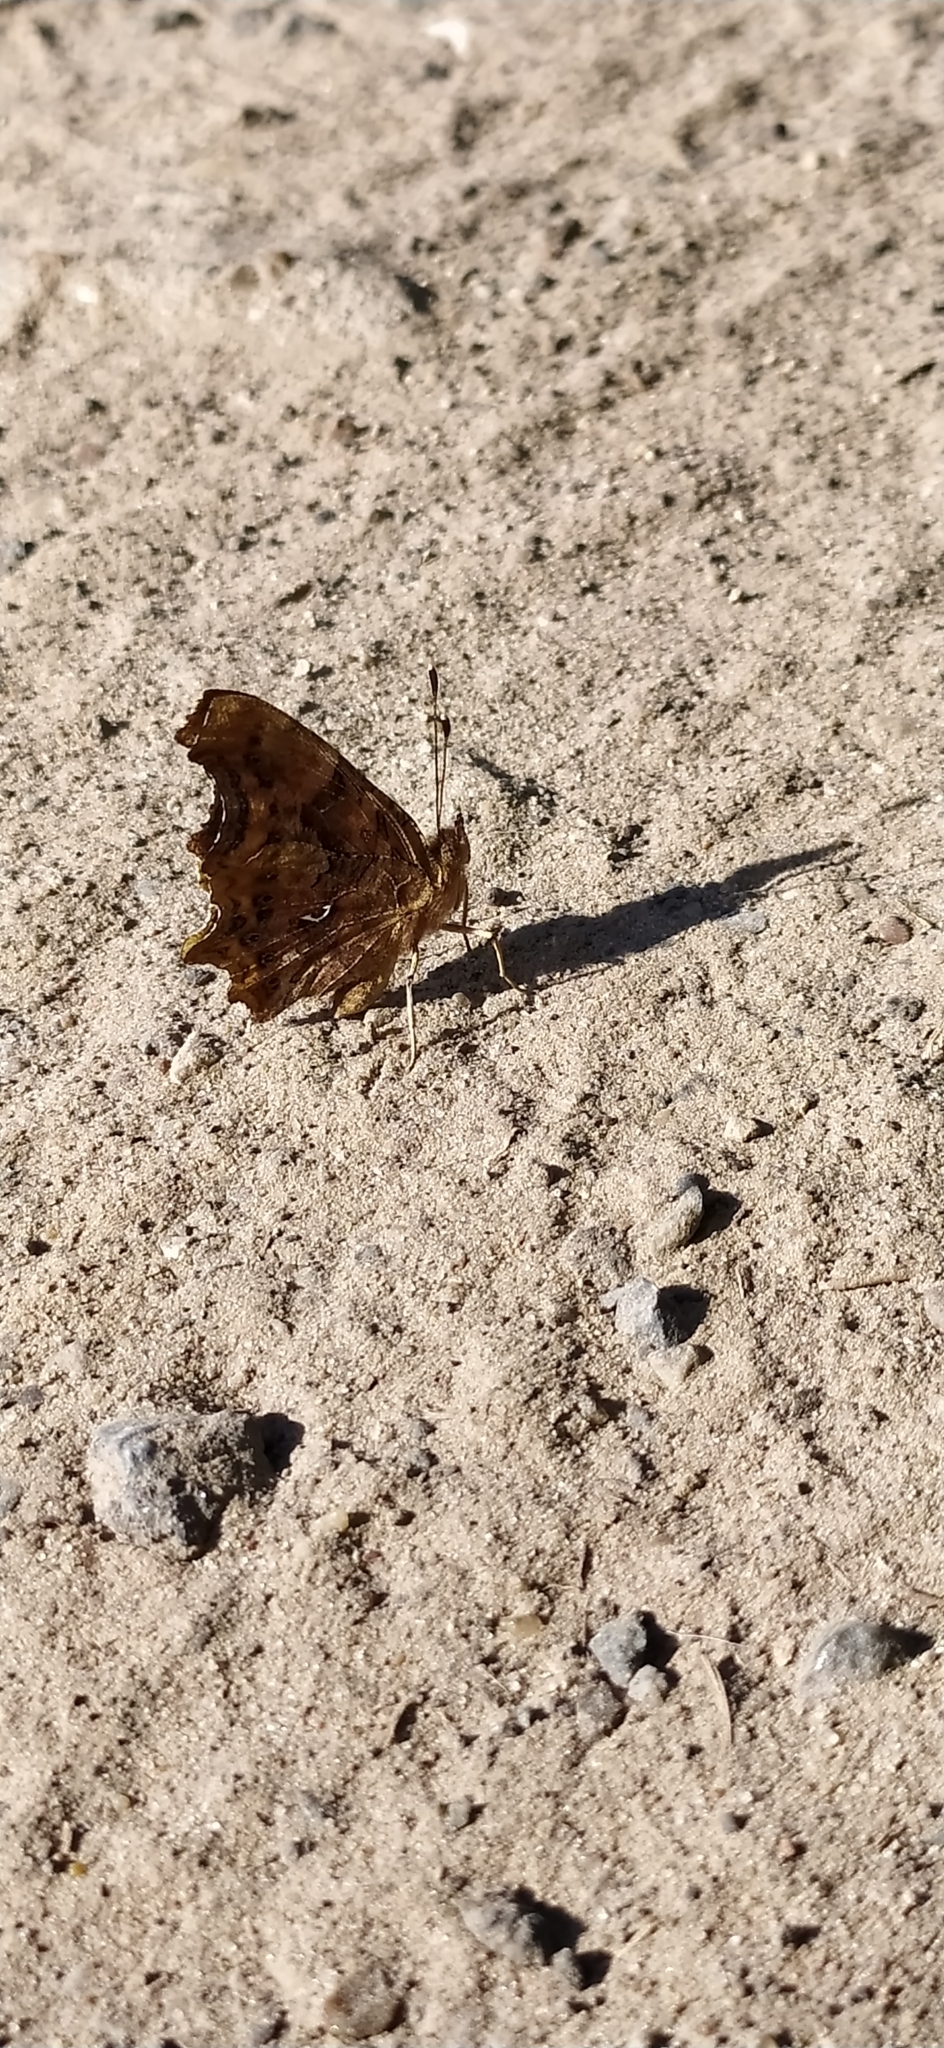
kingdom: Animalia
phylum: Arthropoda
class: Insecta
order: Lepidoptera
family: Nymphalidae
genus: Polygonia
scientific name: Polygonia c-album
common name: Comma
